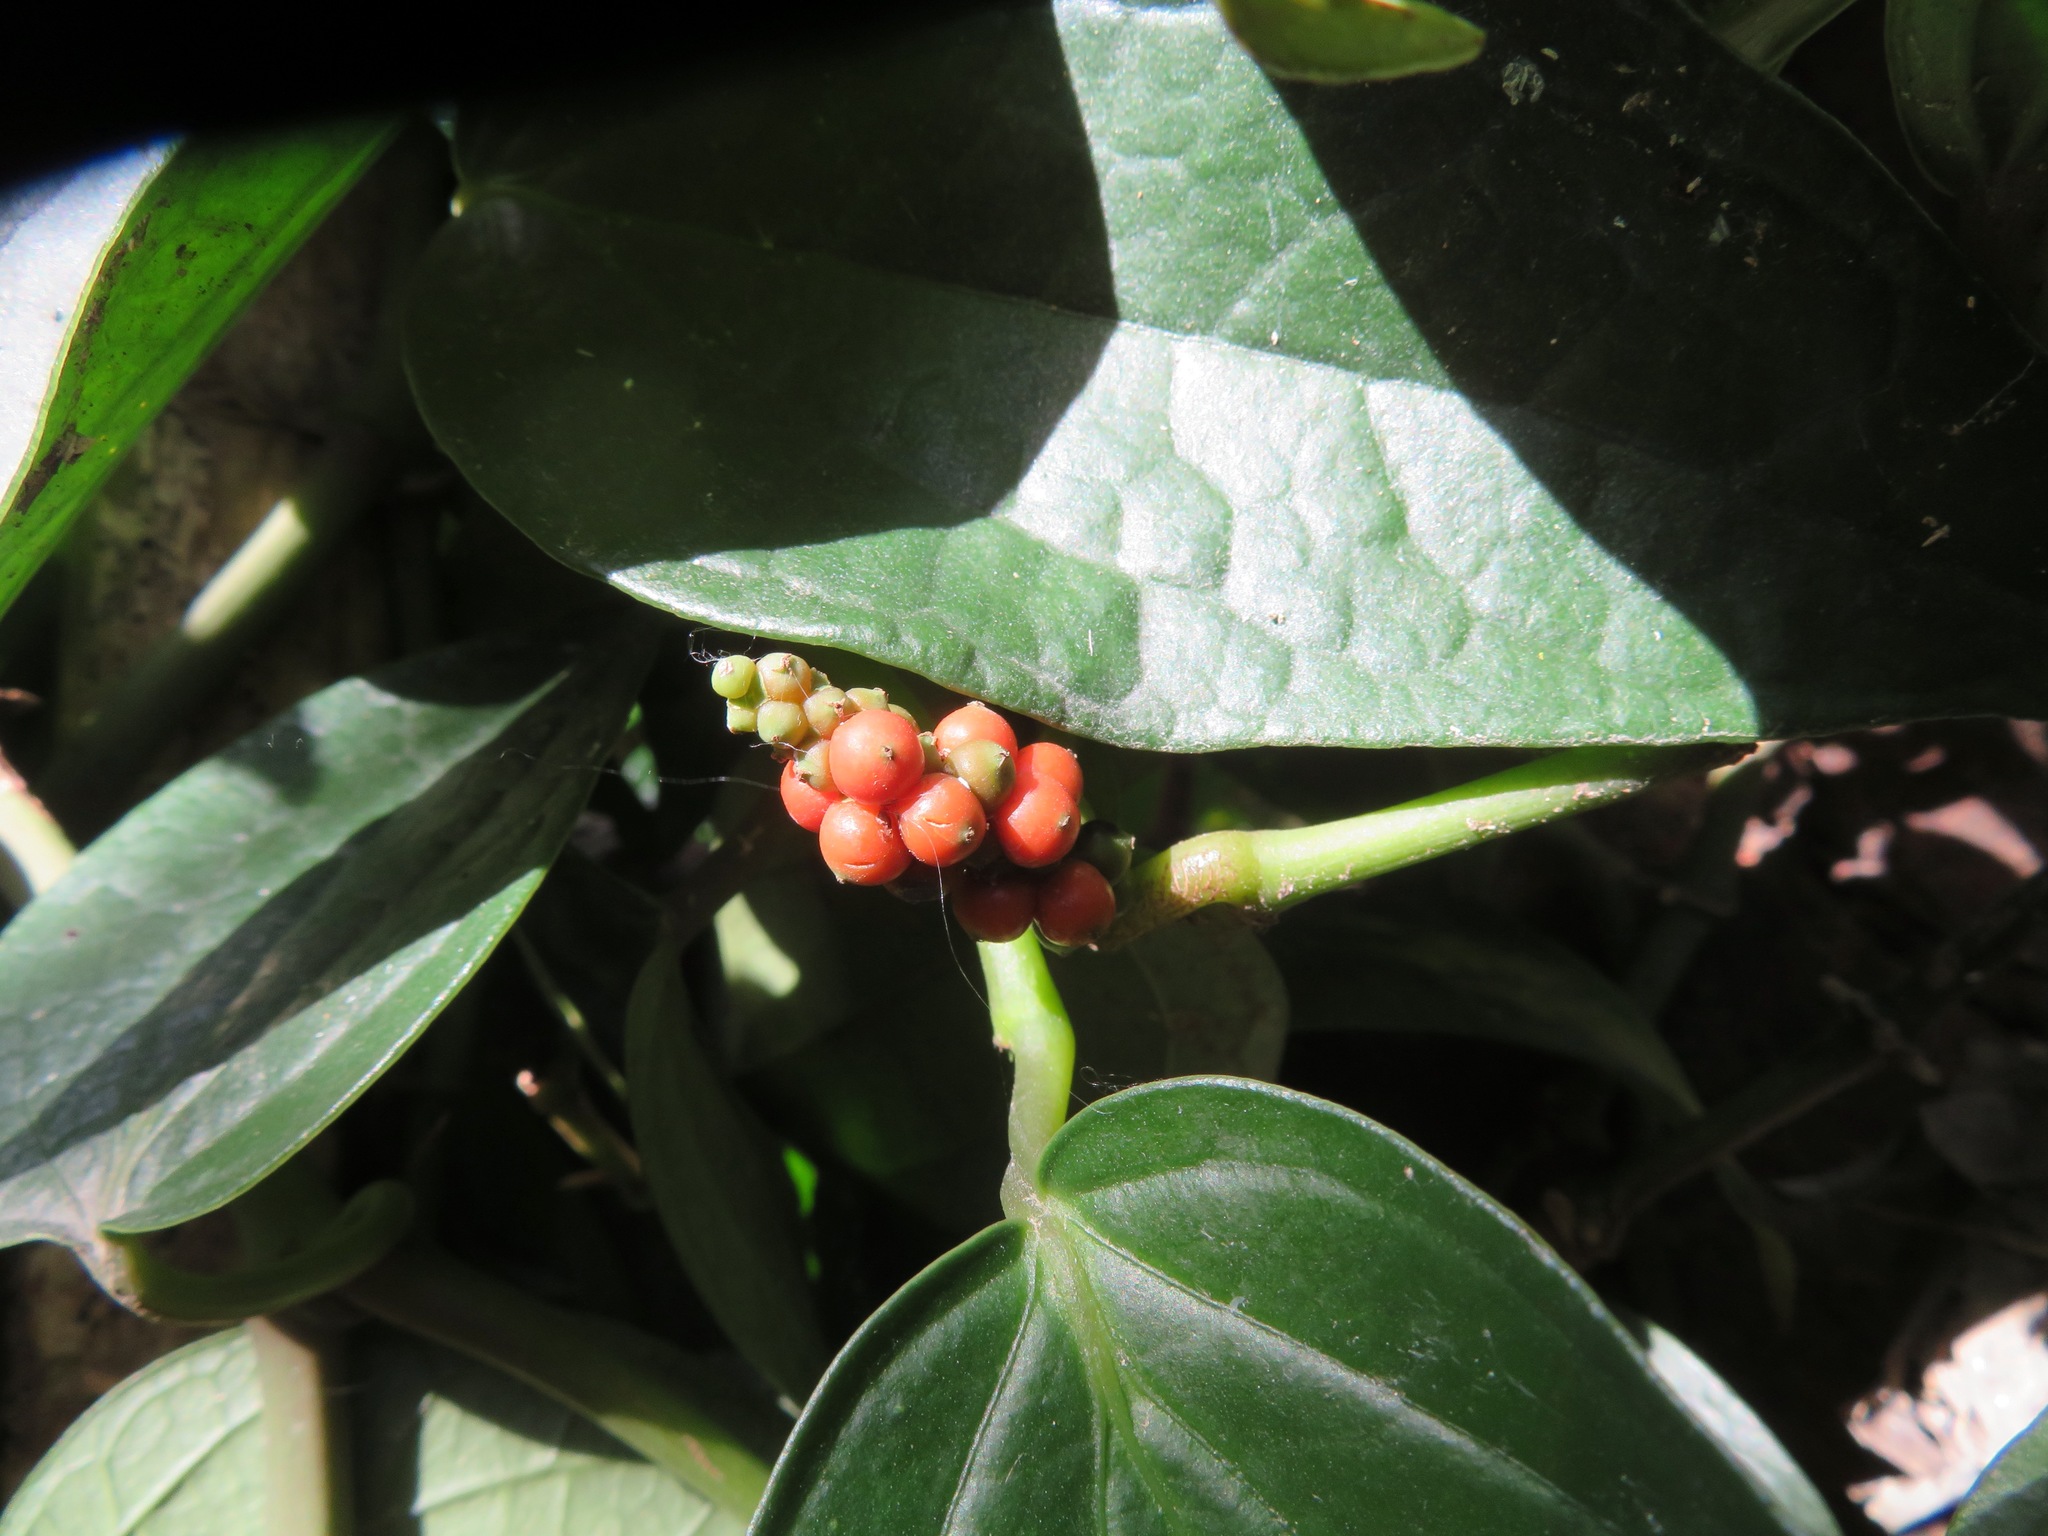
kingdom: Plantae
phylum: Tracheophyta
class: Magnoliopsida
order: Piperales
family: Piperaceae
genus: Piper
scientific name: Piper kadsura
